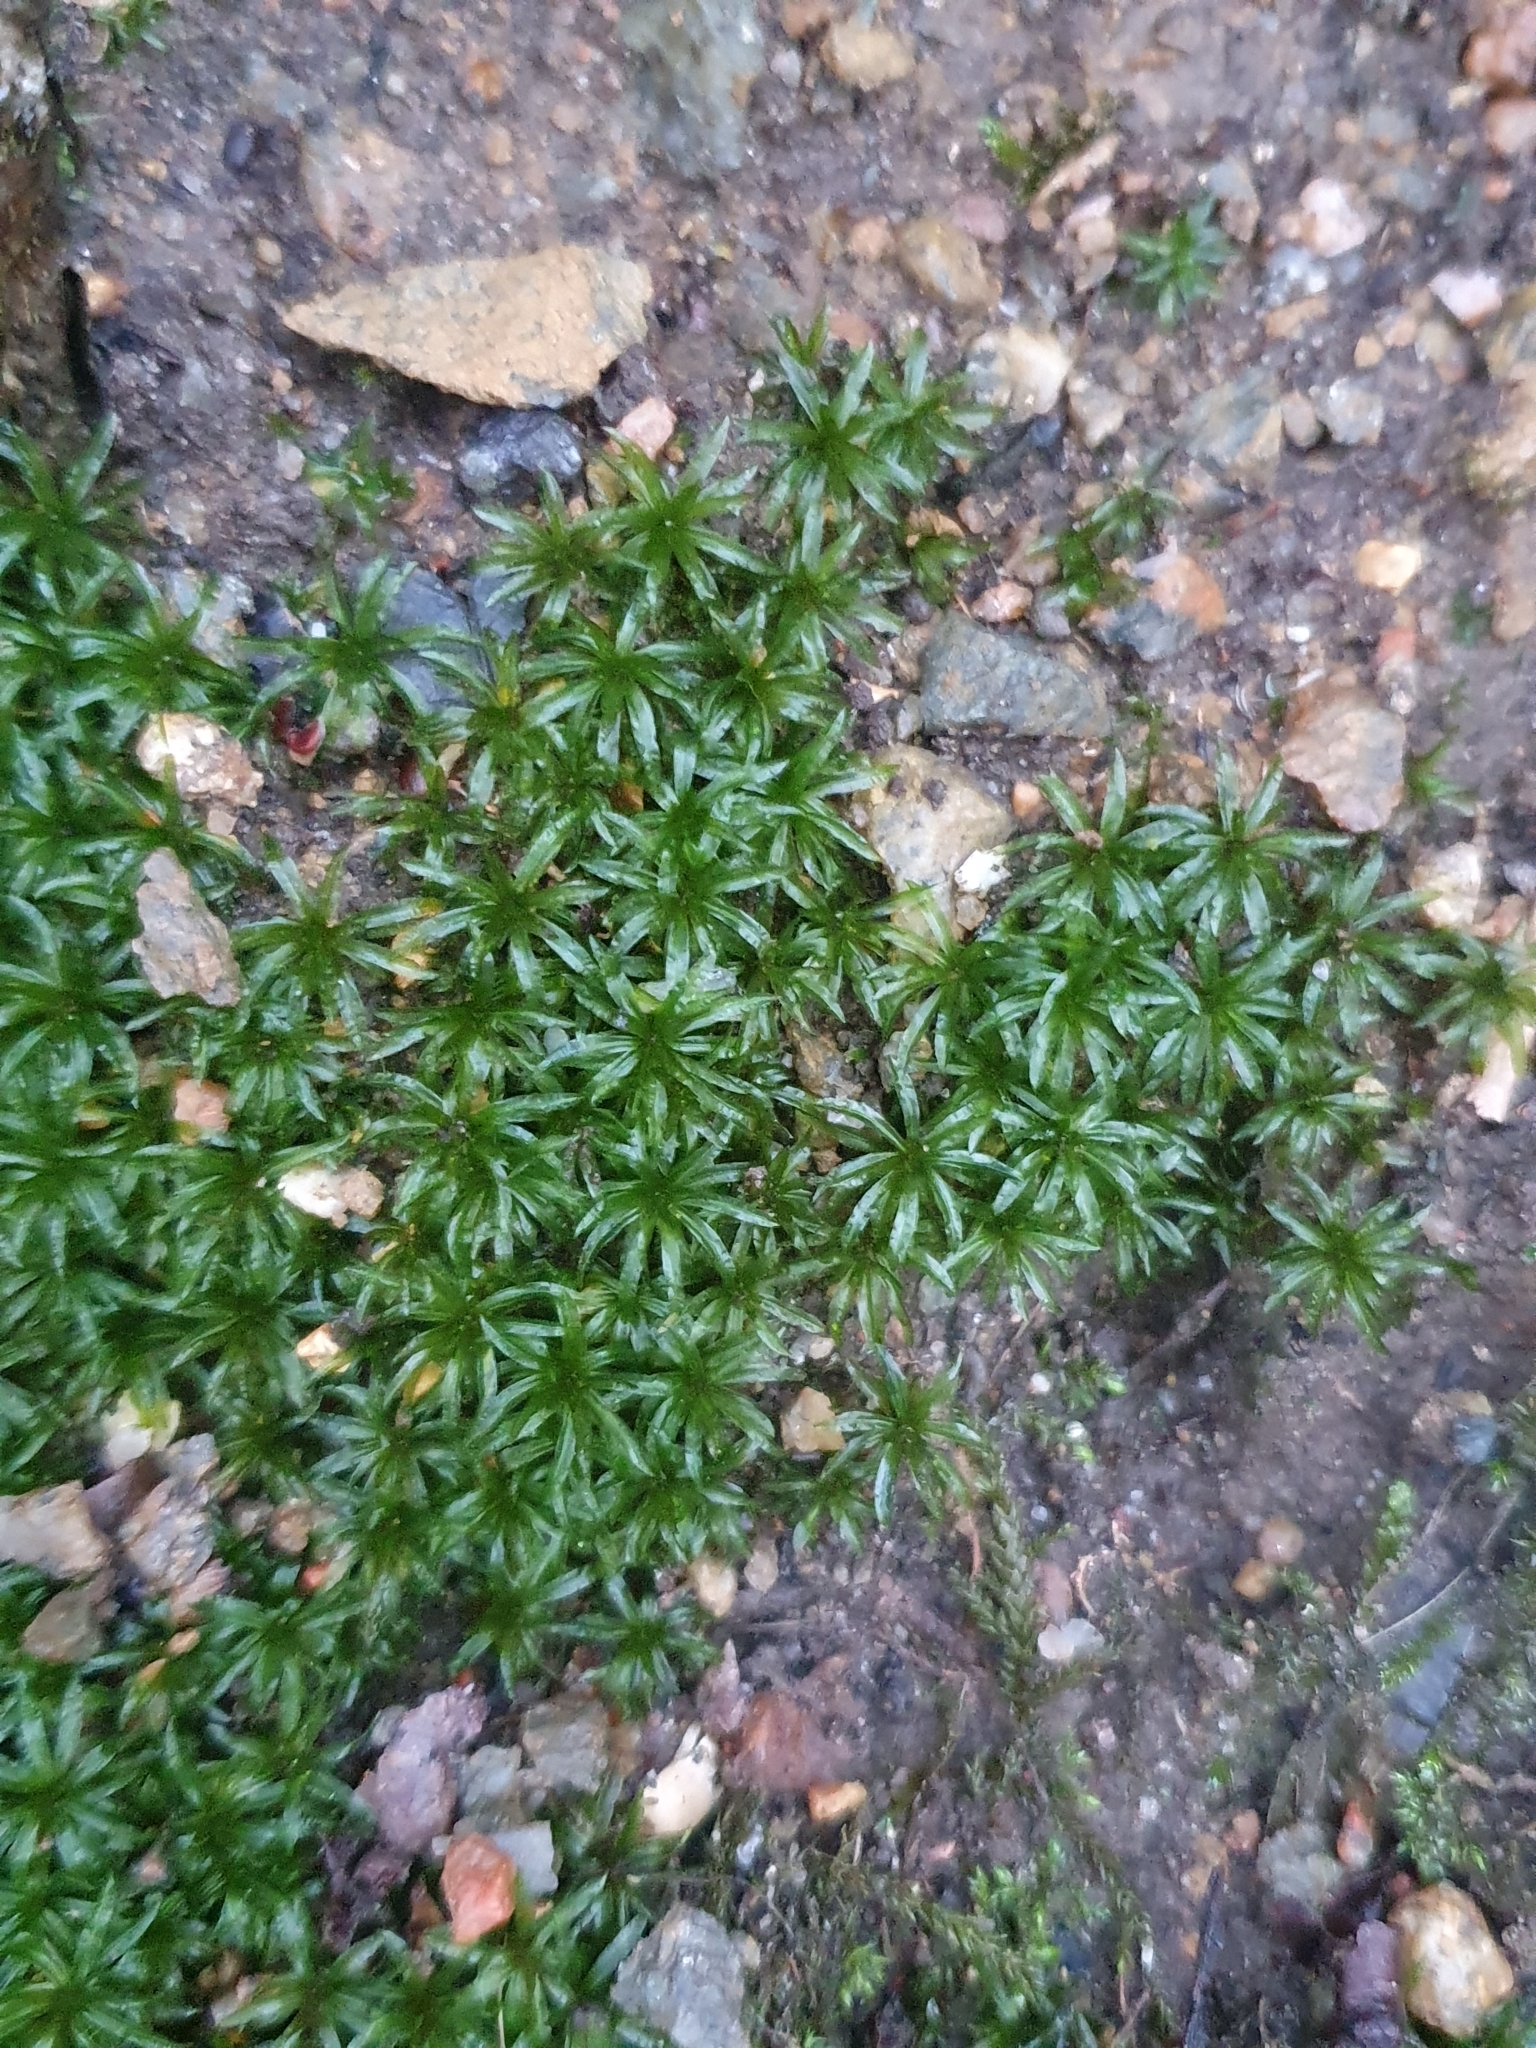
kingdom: Plantae
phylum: Bryophyta
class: Polytrichopsida
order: Polytrichales
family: Polytrichaceae
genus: Atrichum
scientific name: Atrichum undulatum
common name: Common smoothcap
